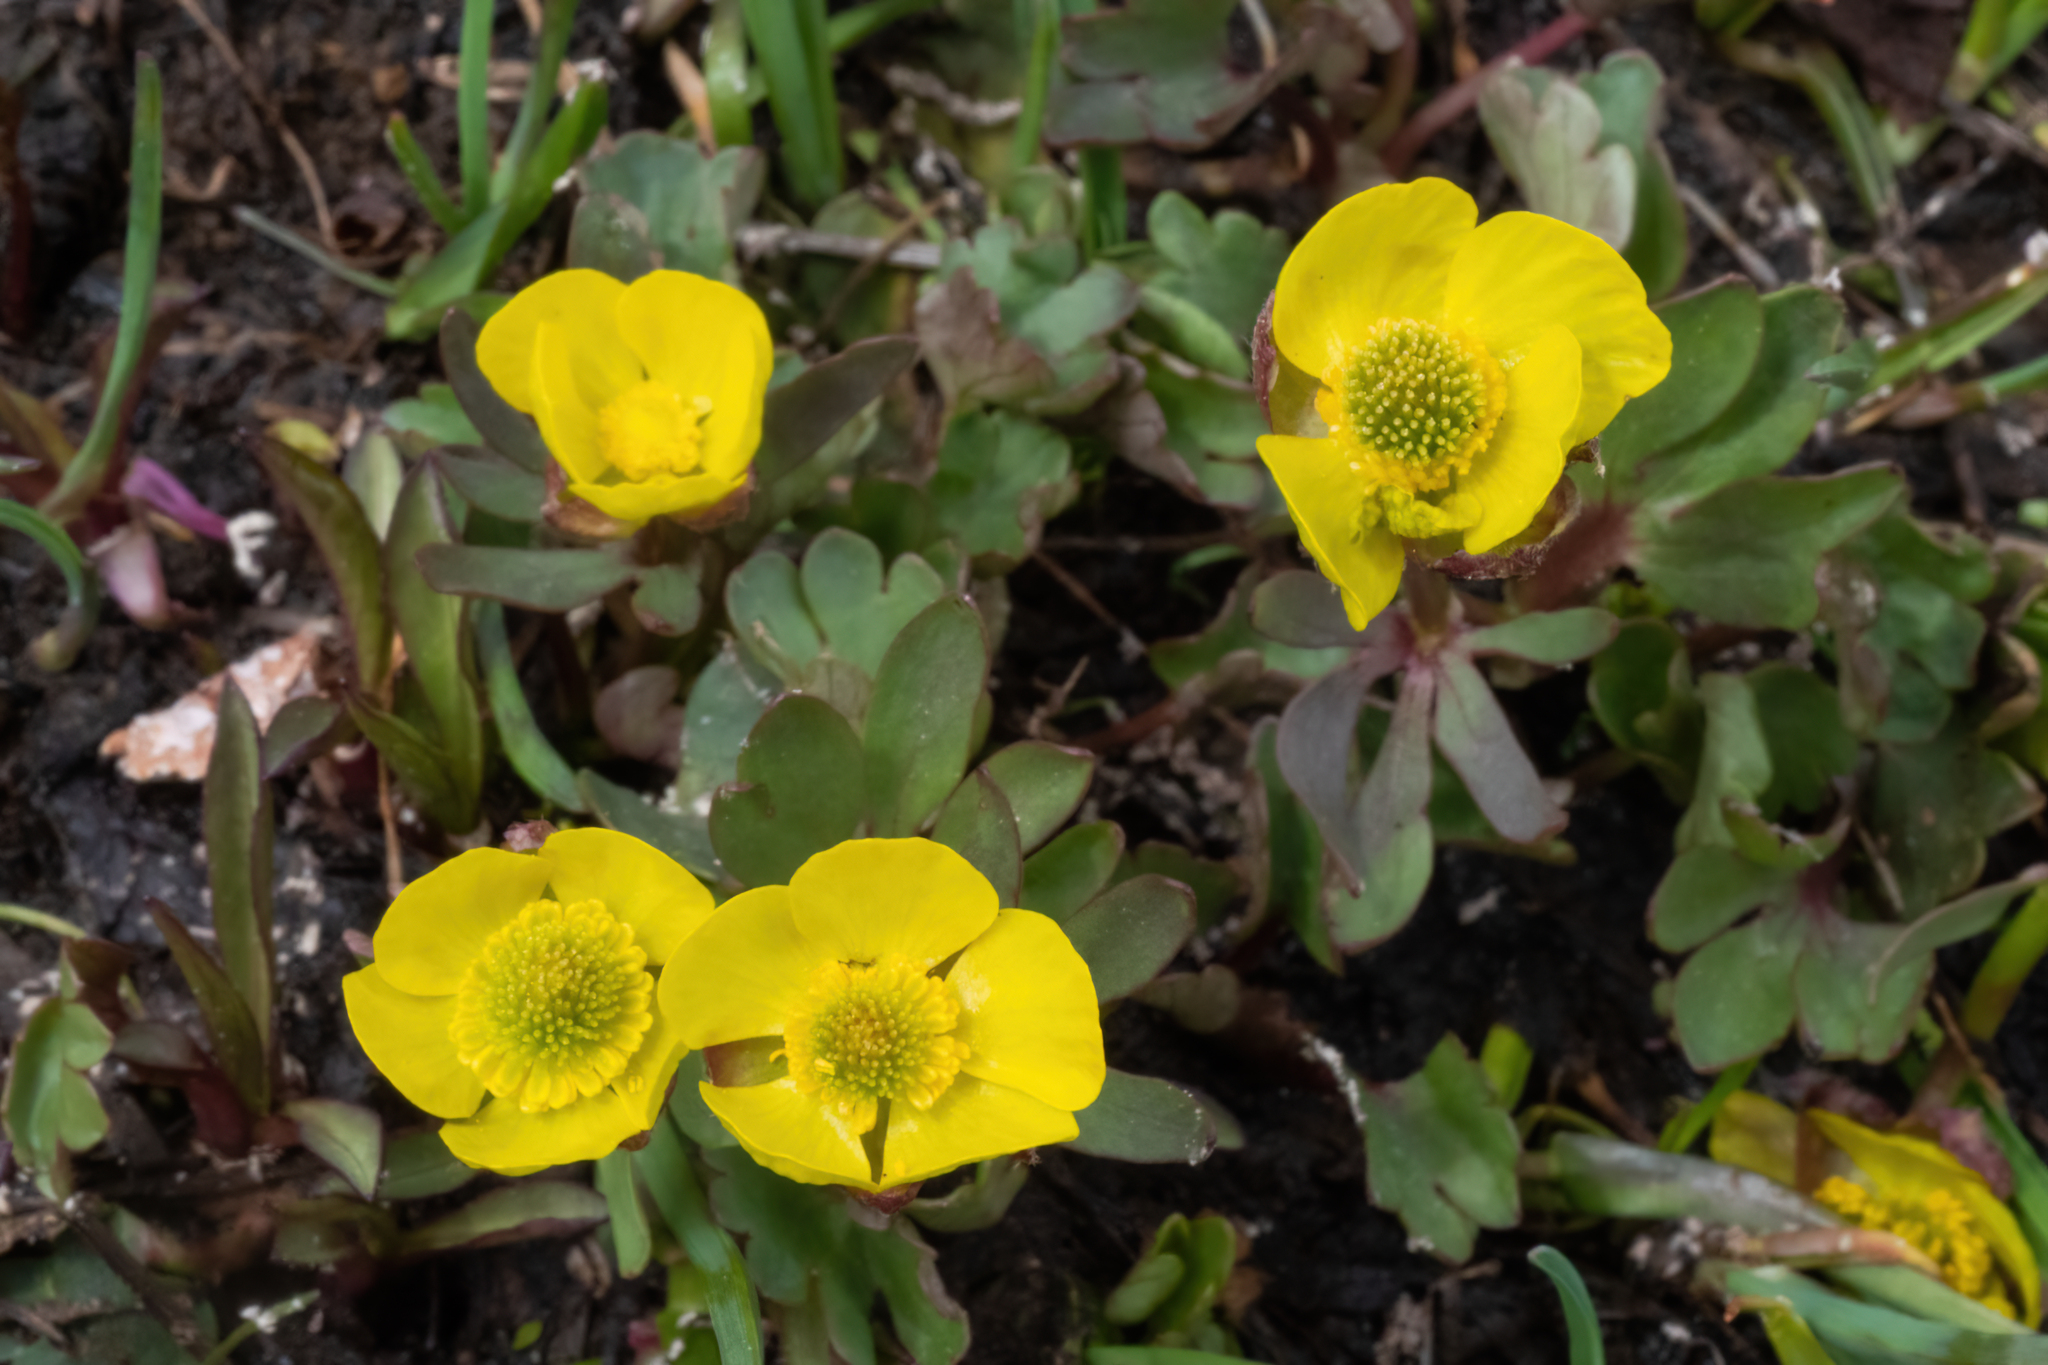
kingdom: Plantae
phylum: Tracheophyta
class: Magnoliopsida
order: Ranunculales
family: Ranunculaceae
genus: Ranunculus
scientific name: Ranunculus eschscholtzii
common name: Eschscholtz's buttercup
